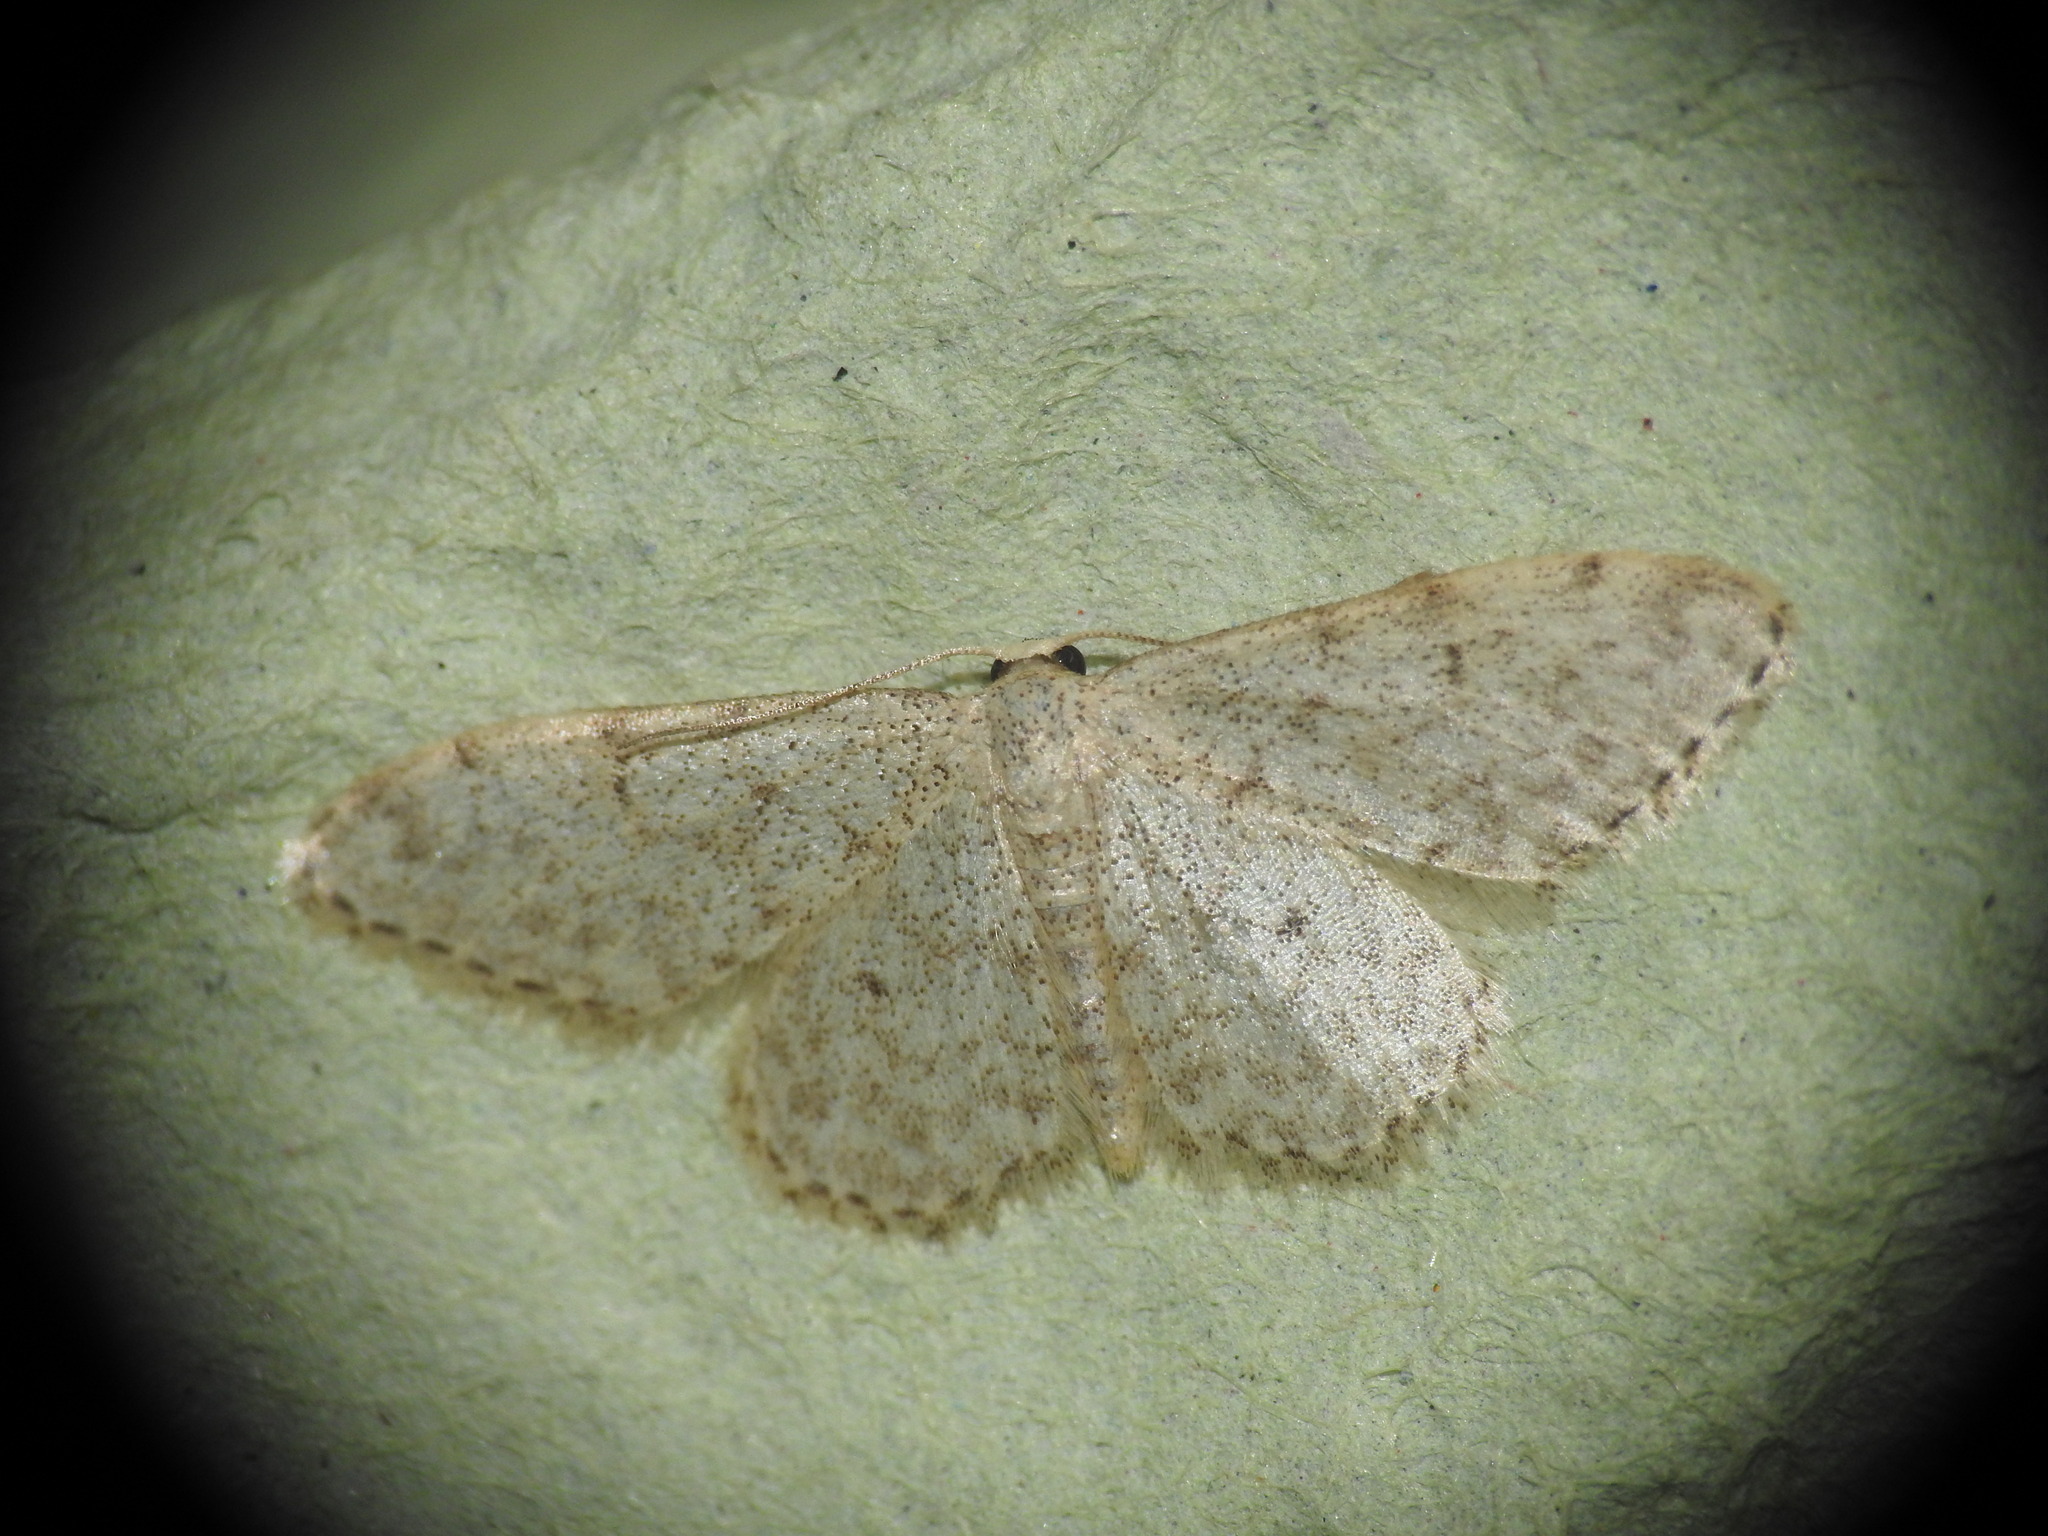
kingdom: Animalia
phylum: Arthropoda
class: Insecta
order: Lepidoptera
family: Geometridae
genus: Idaea
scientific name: Idaea cervantaria
